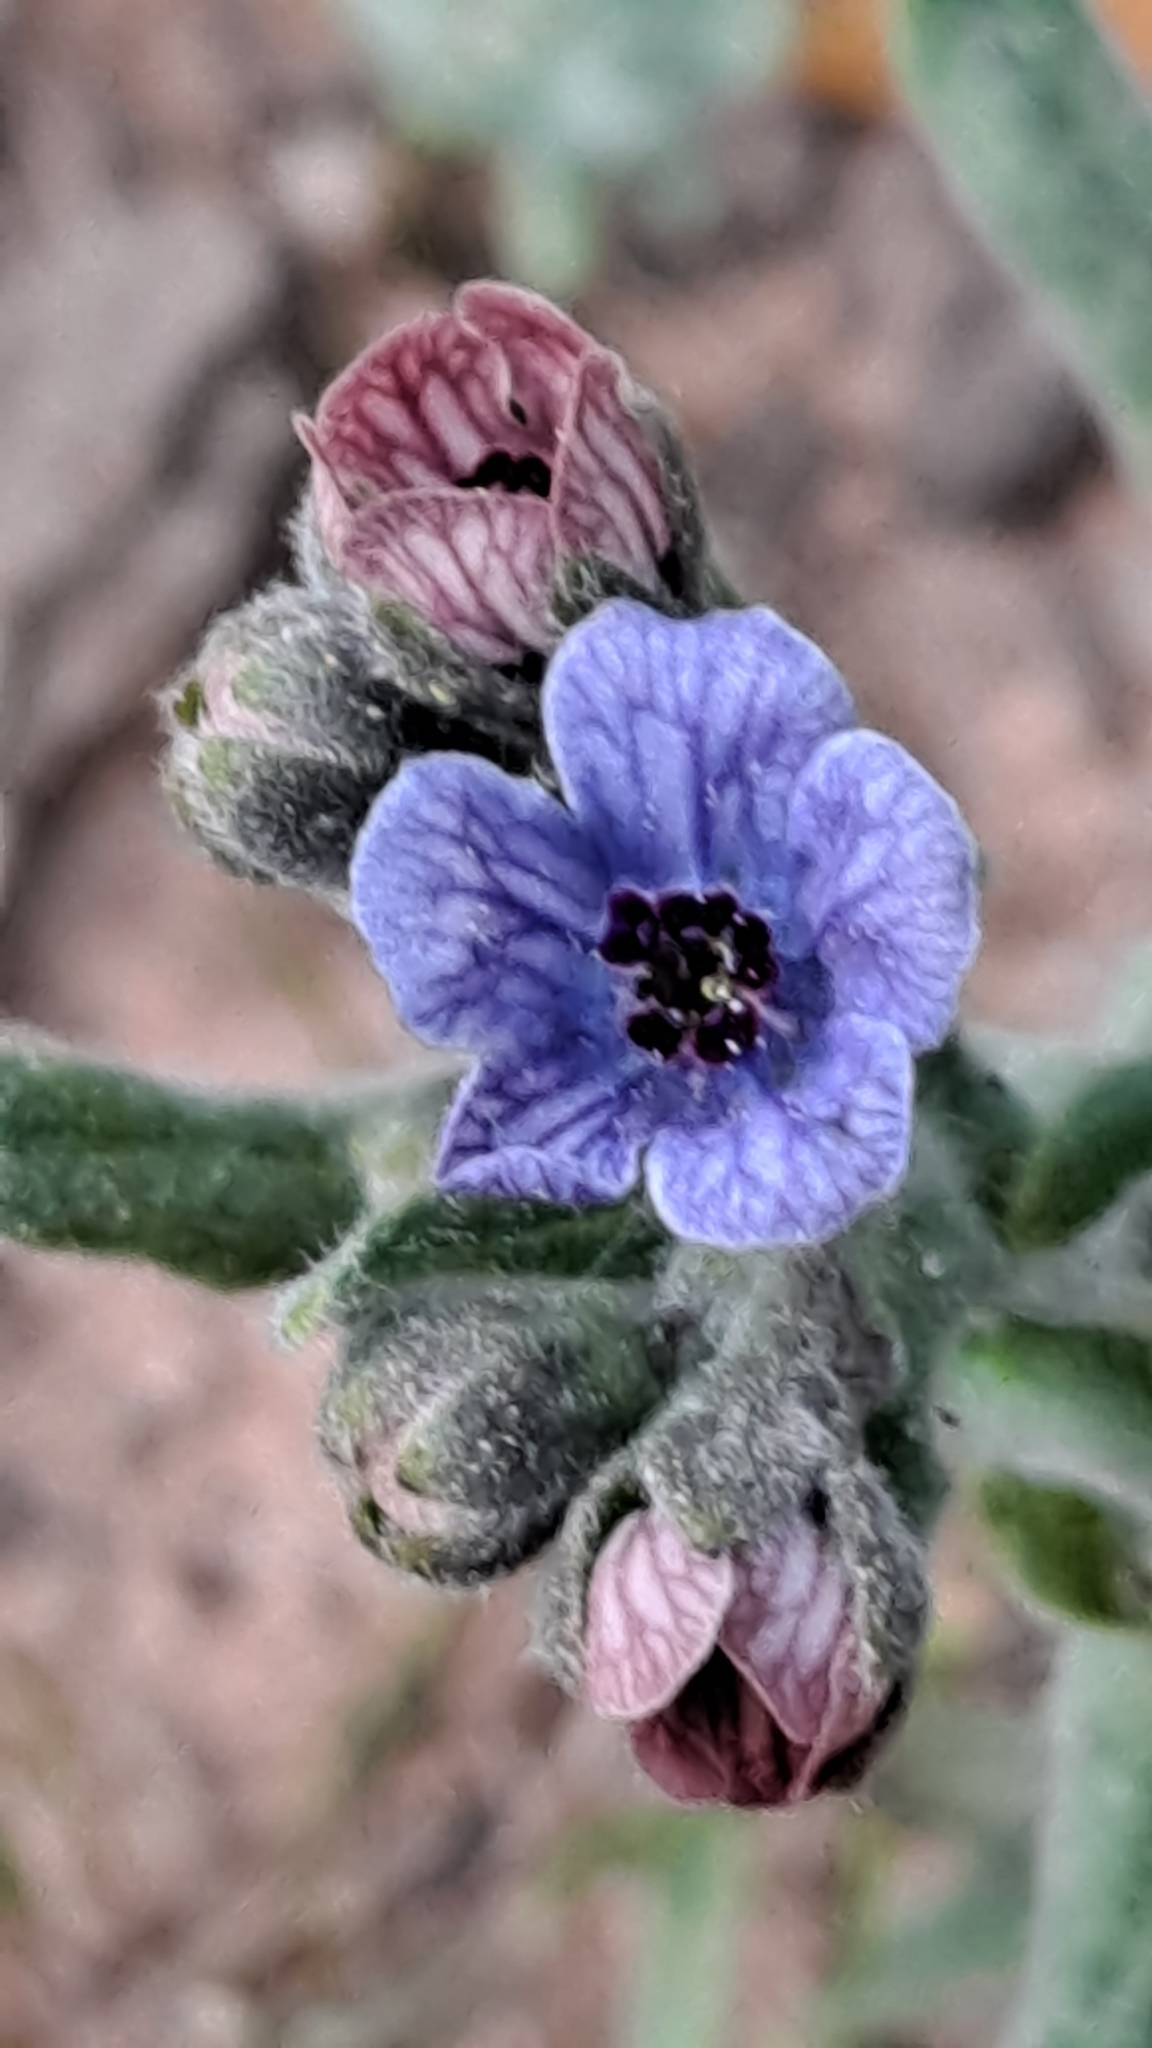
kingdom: Plantae
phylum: Tracheophyta
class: Magnoliopsida
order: Boraginales
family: Boraginaceae
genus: Cynoglossum
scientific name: Cynoglossum creticum
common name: Blue hound's tongue
